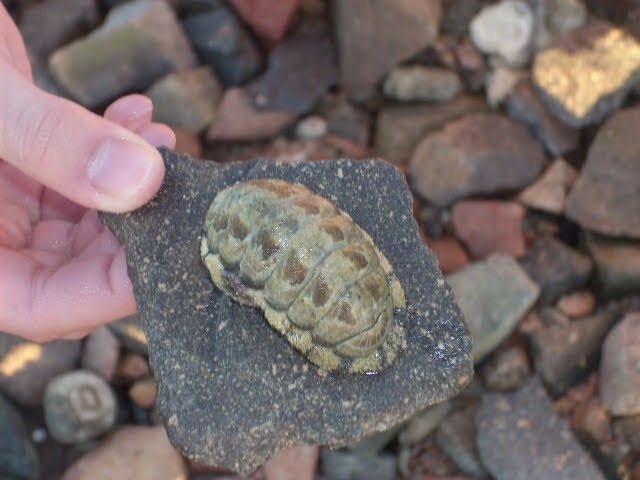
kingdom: Animalia
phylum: Mollusca
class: Polyplacophora
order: Chitonida
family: Chitonidae
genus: Acanthopleura
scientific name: Acanthopleura vaillantii
